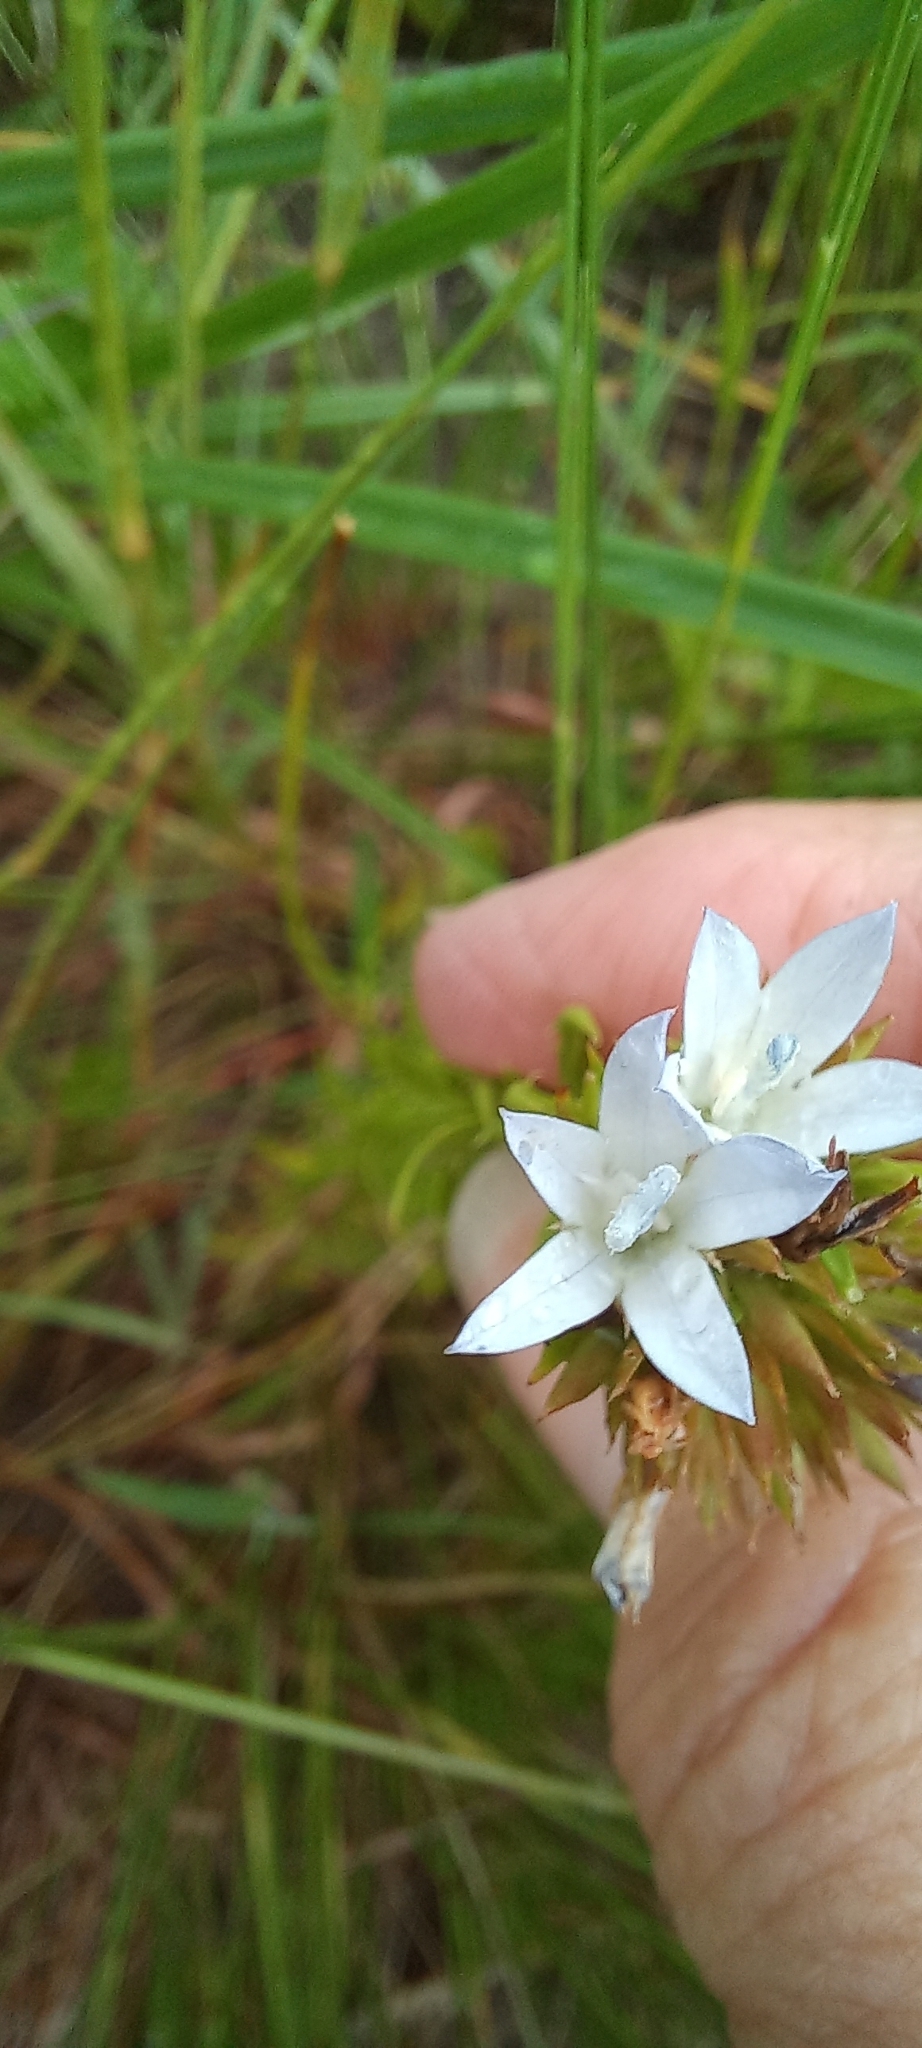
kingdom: Plantae
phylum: Tracheophyta
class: Magnoliopsida
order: Asterales
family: Campanulaceae
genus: Roella
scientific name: Roella glomerata
